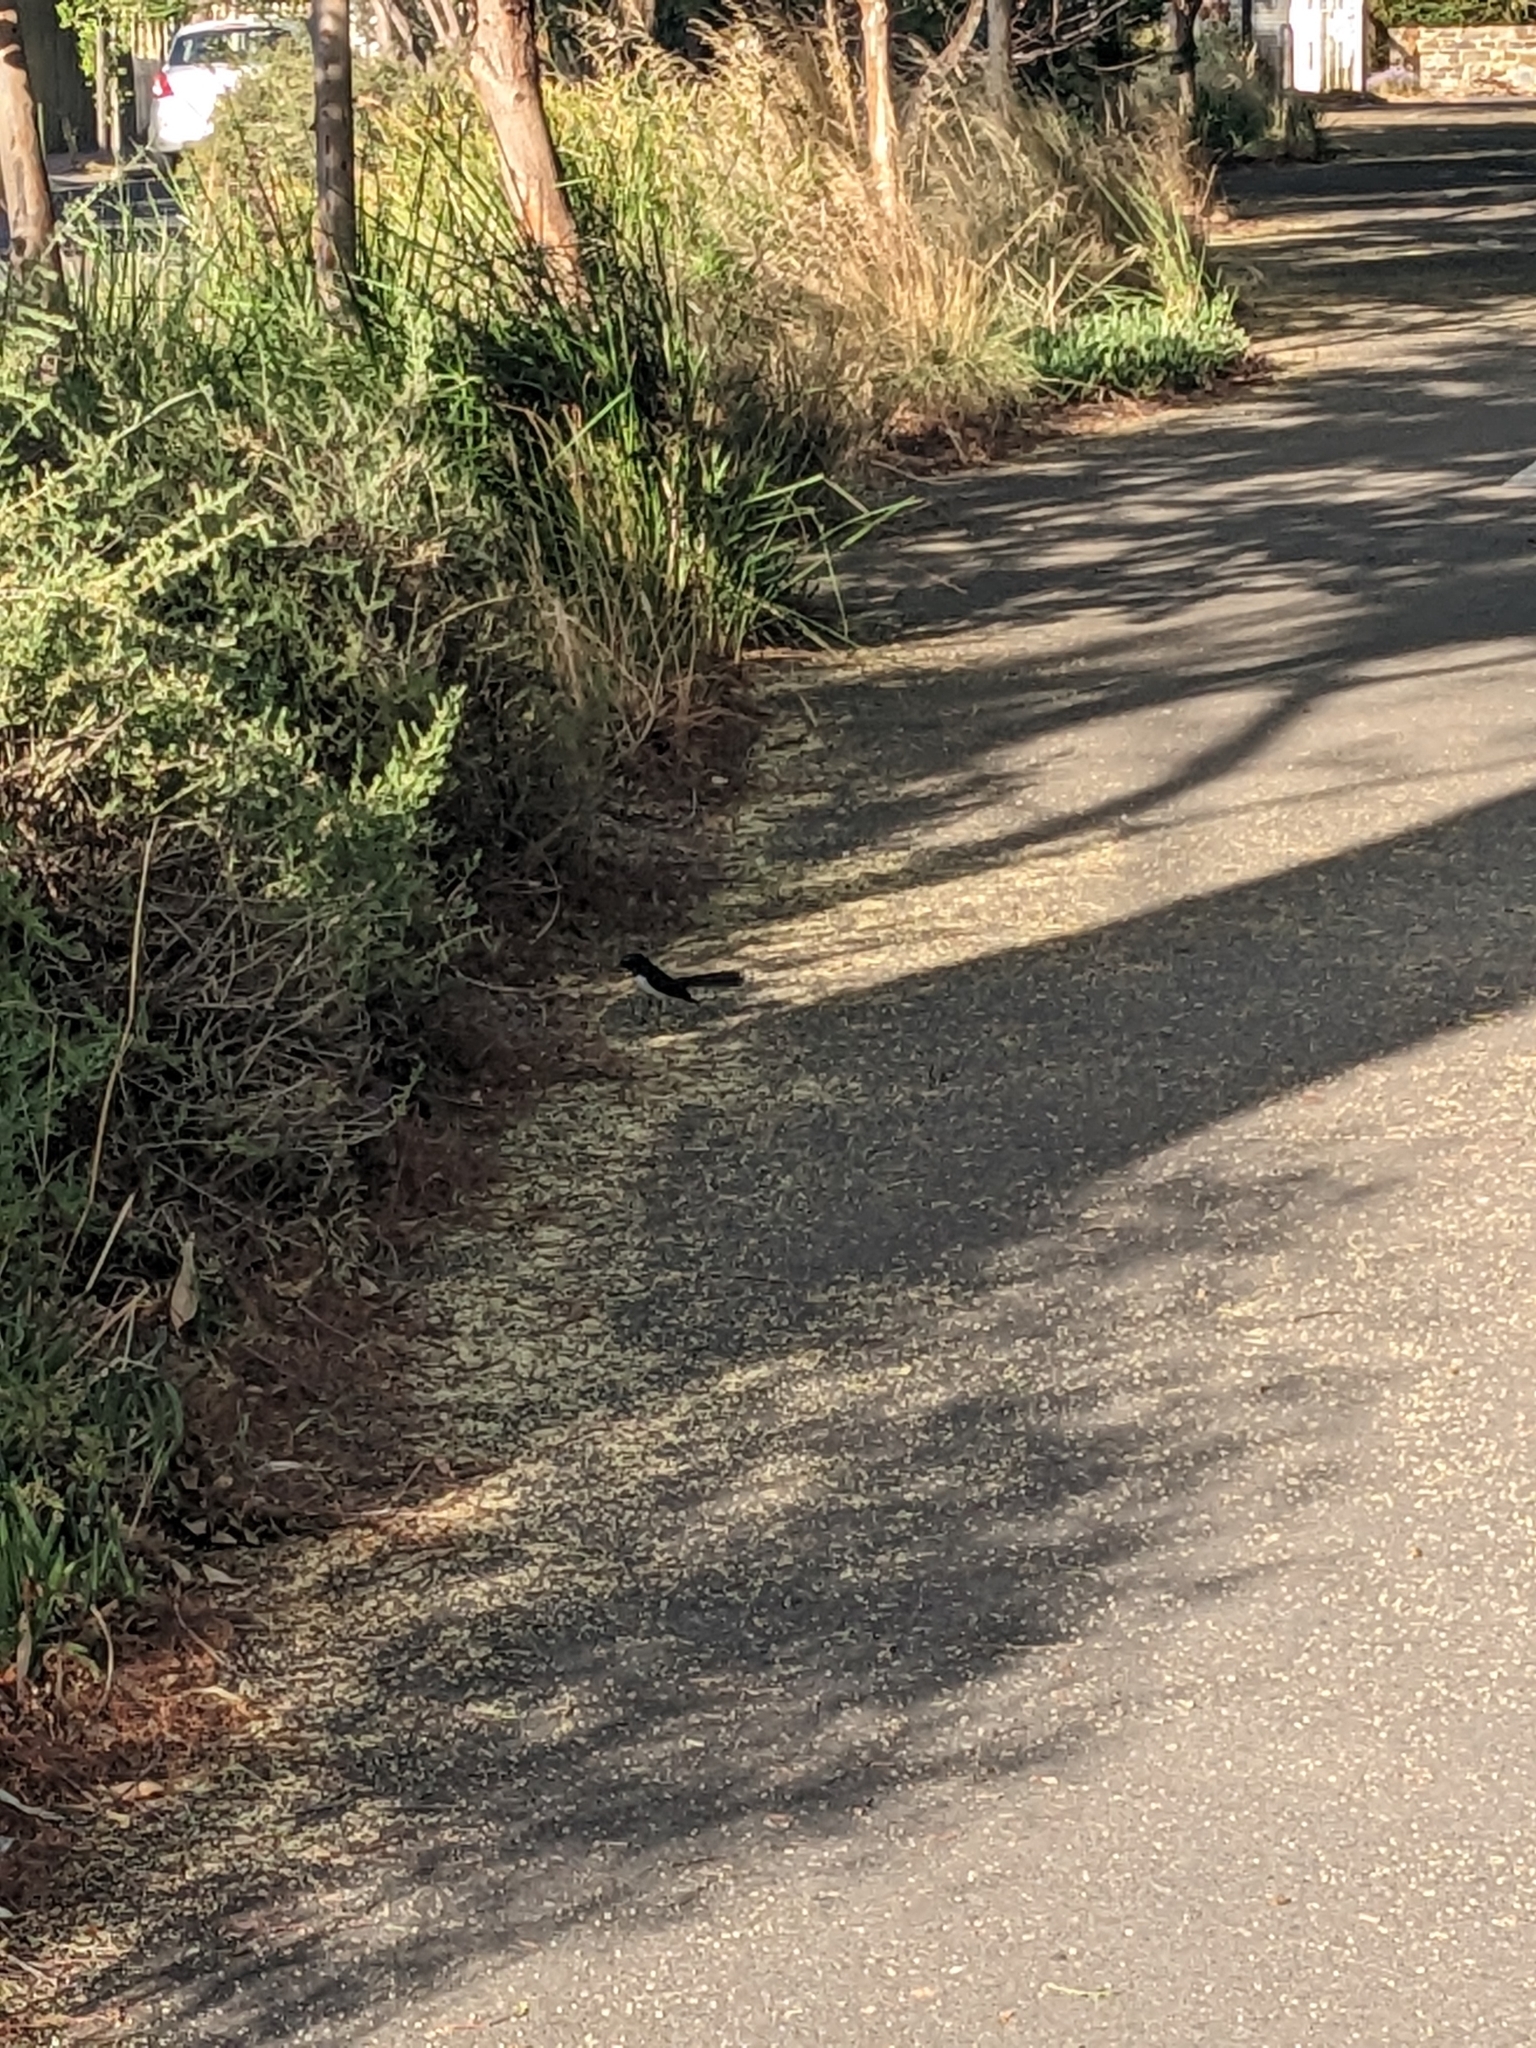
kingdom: Animalia
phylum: Chordata
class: Aves
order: Passeriformes
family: Rhipiduridae
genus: Rhipidura
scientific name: Rhipidura leucophrys
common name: Willie wagtail
